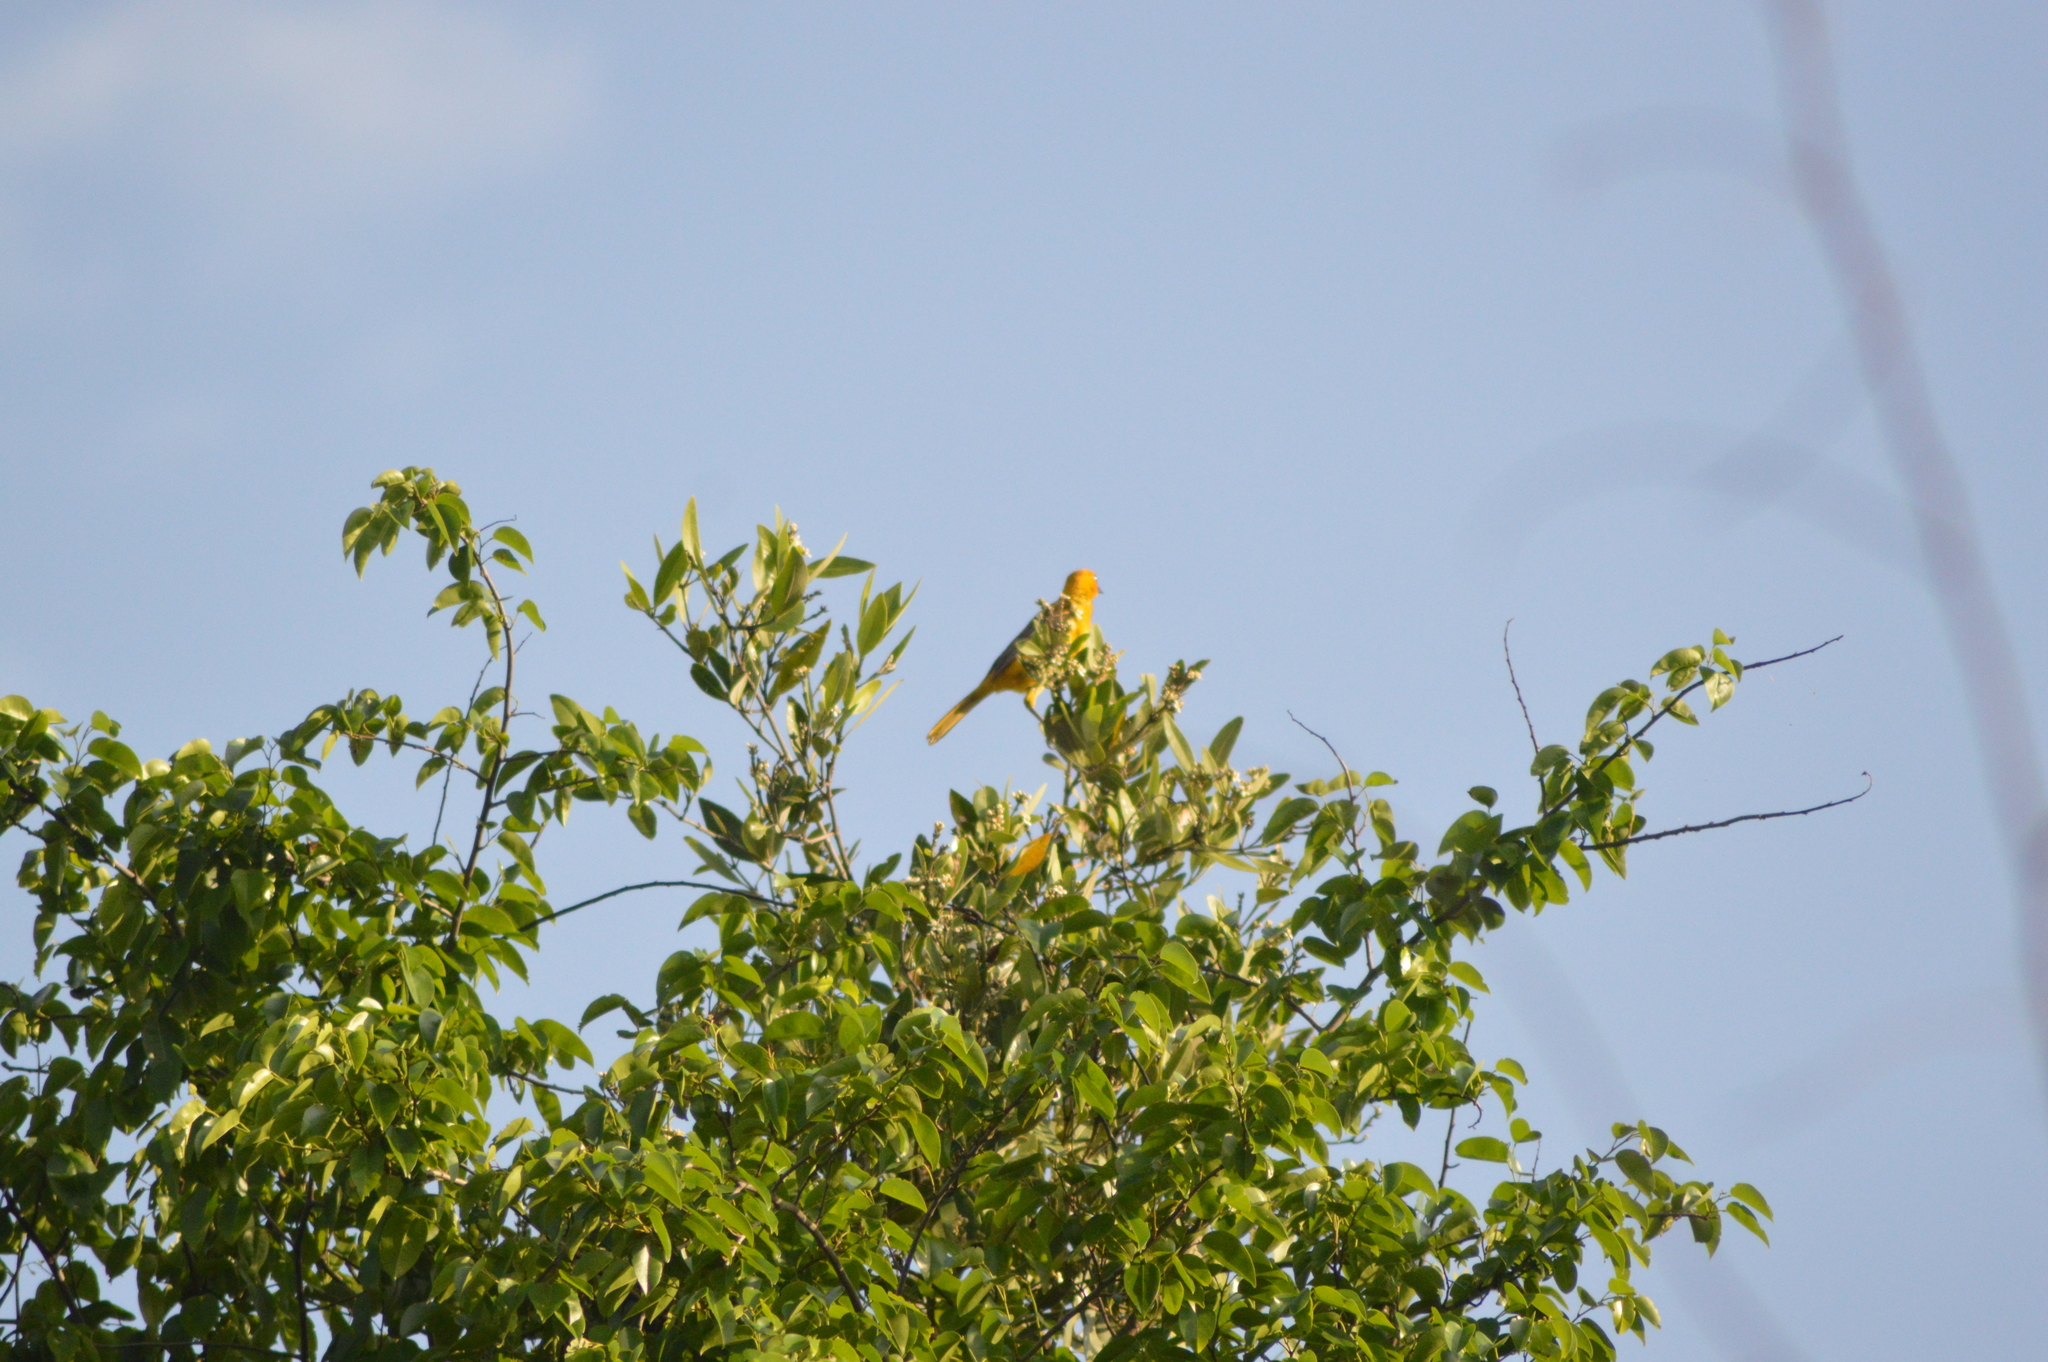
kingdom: Animalia
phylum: Chordata
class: Aves
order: Passeriformes
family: Icteridae
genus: Icterus
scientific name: Icterus galbula
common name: Baltimore oriole
